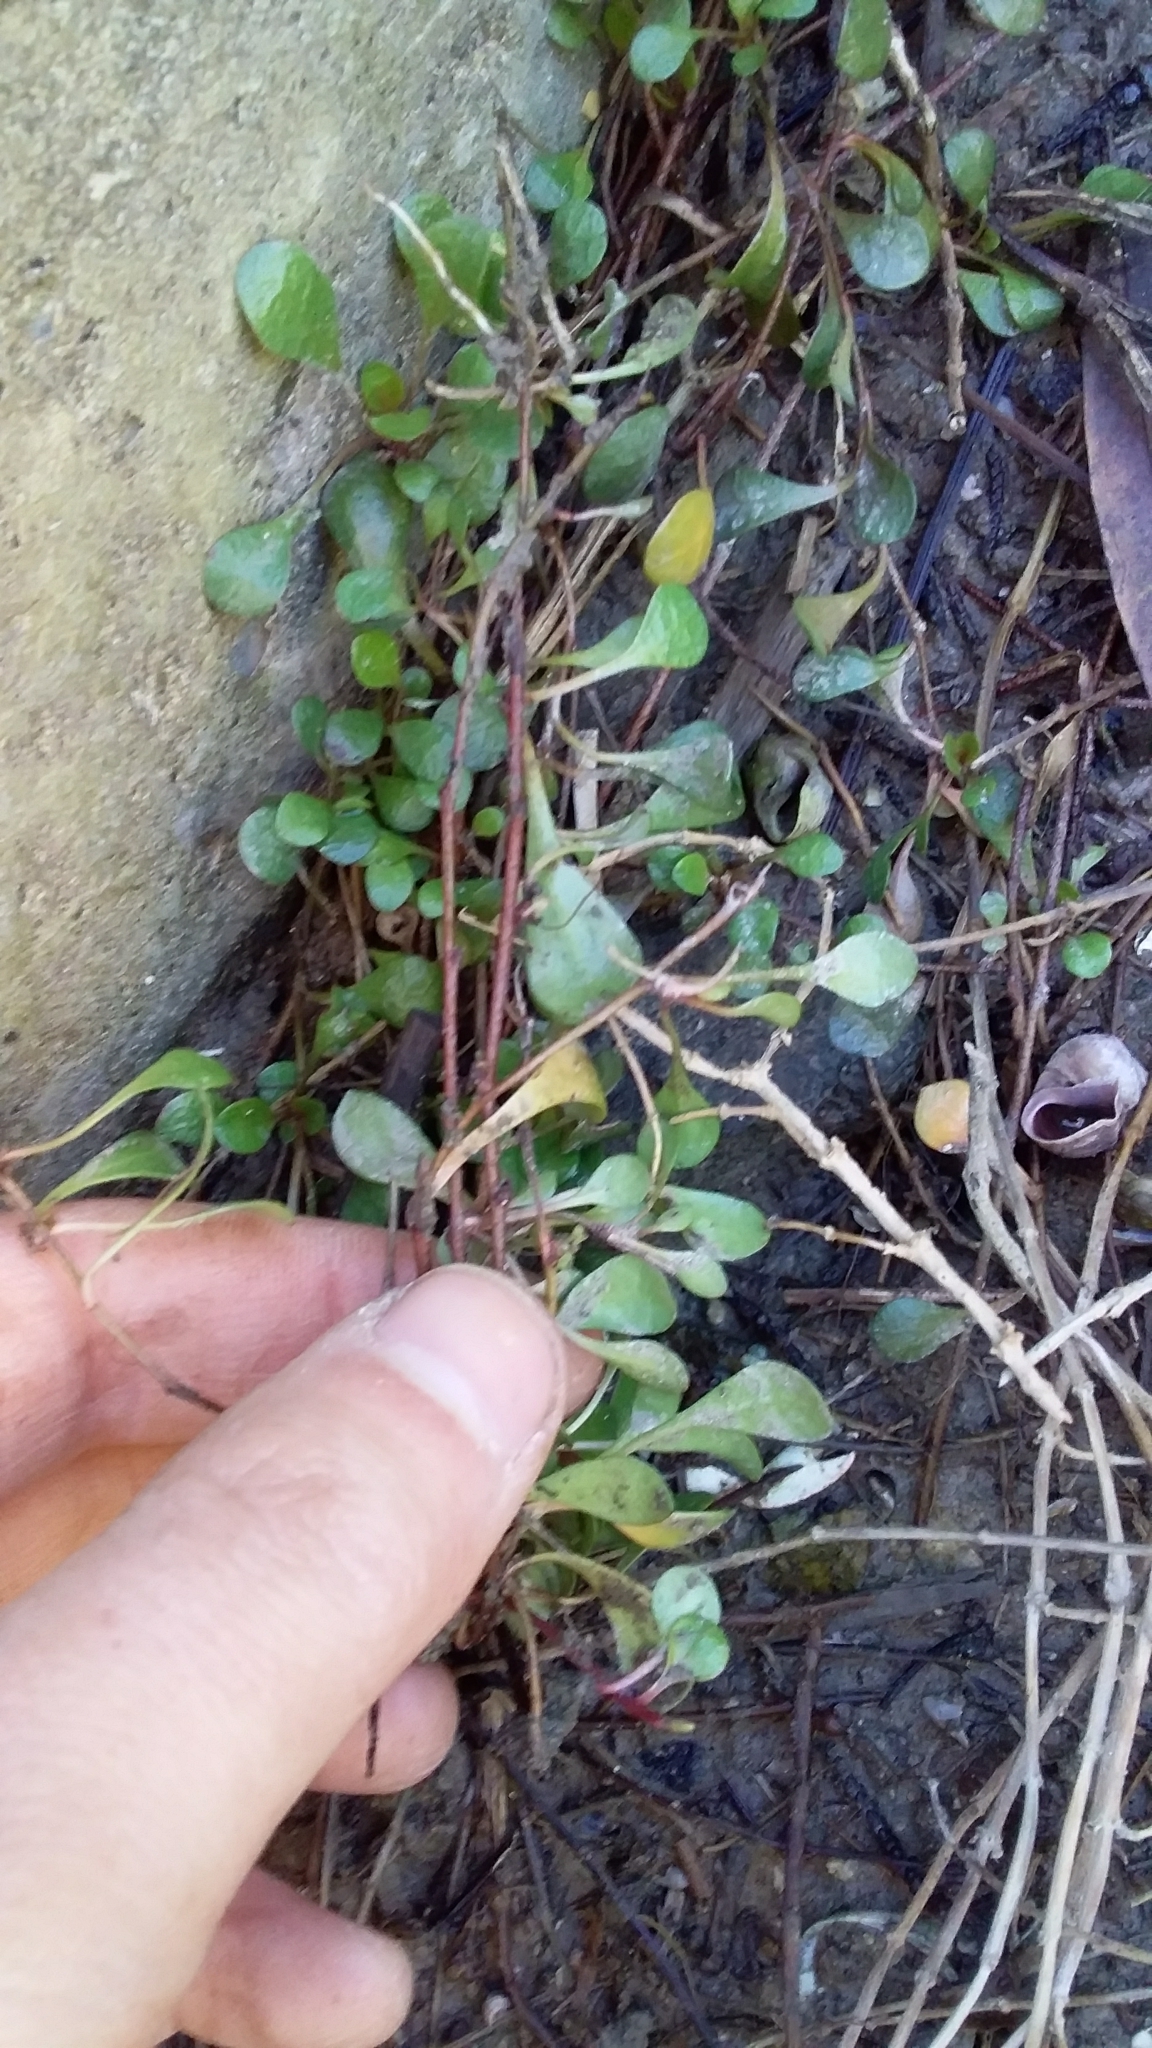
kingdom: Plantae
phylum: Tracheophyta
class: Magnoliopsida
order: Asterales
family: Goodeniaceae
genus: Goodenia
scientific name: Goodenia radicans
